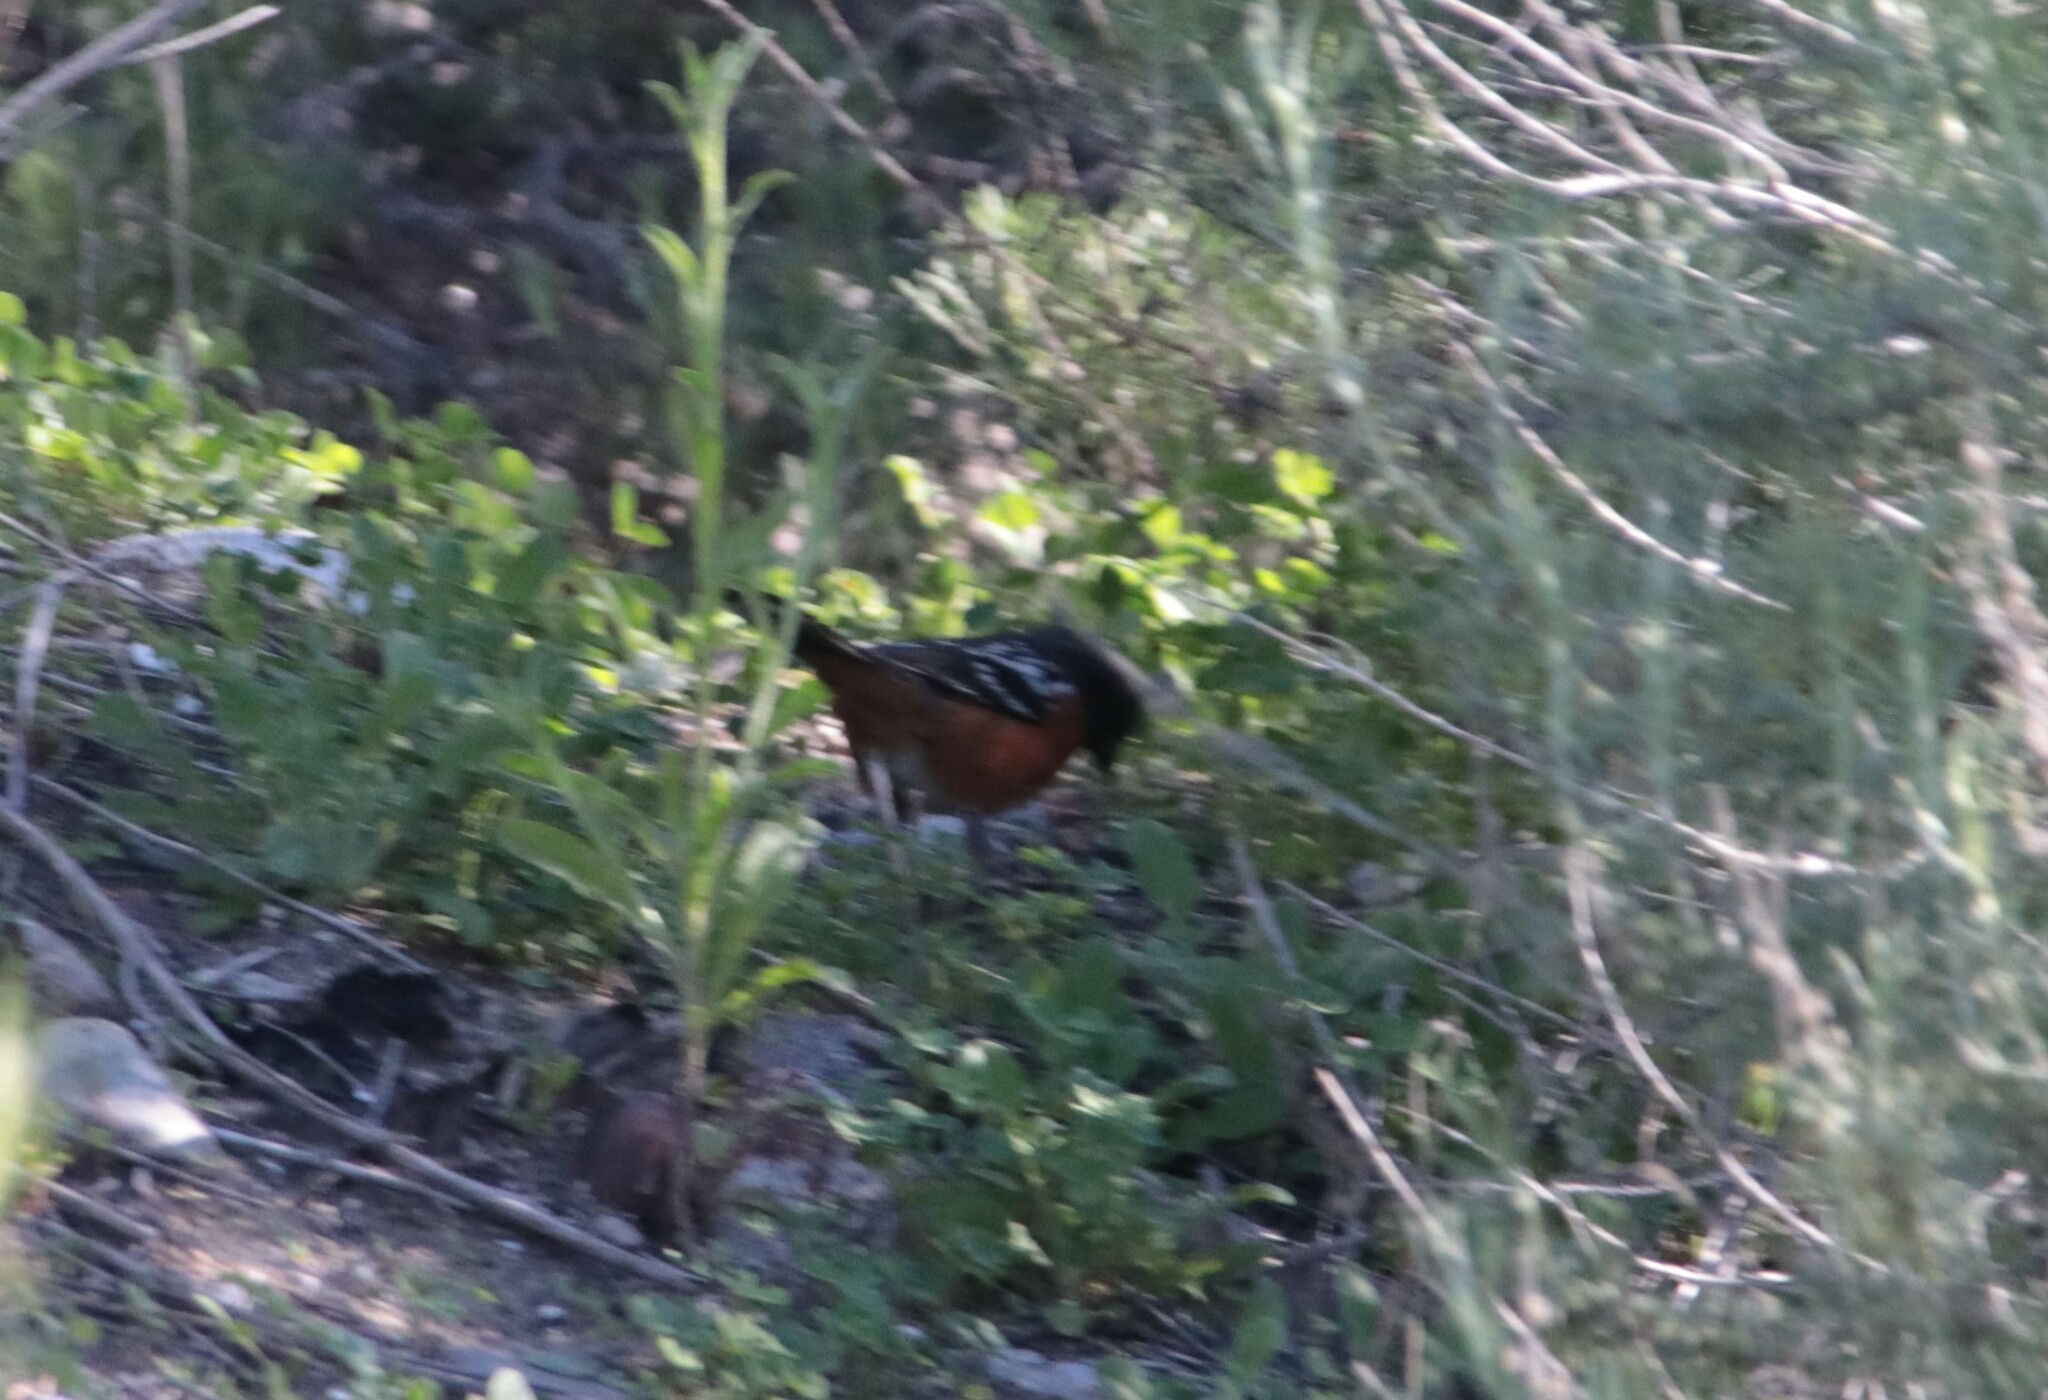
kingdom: Animalia
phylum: Chordata
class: Aves
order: Passeriformes
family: Passerellidae
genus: Pipilo
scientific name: Pipilo maculatus
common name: Spotted towhee
